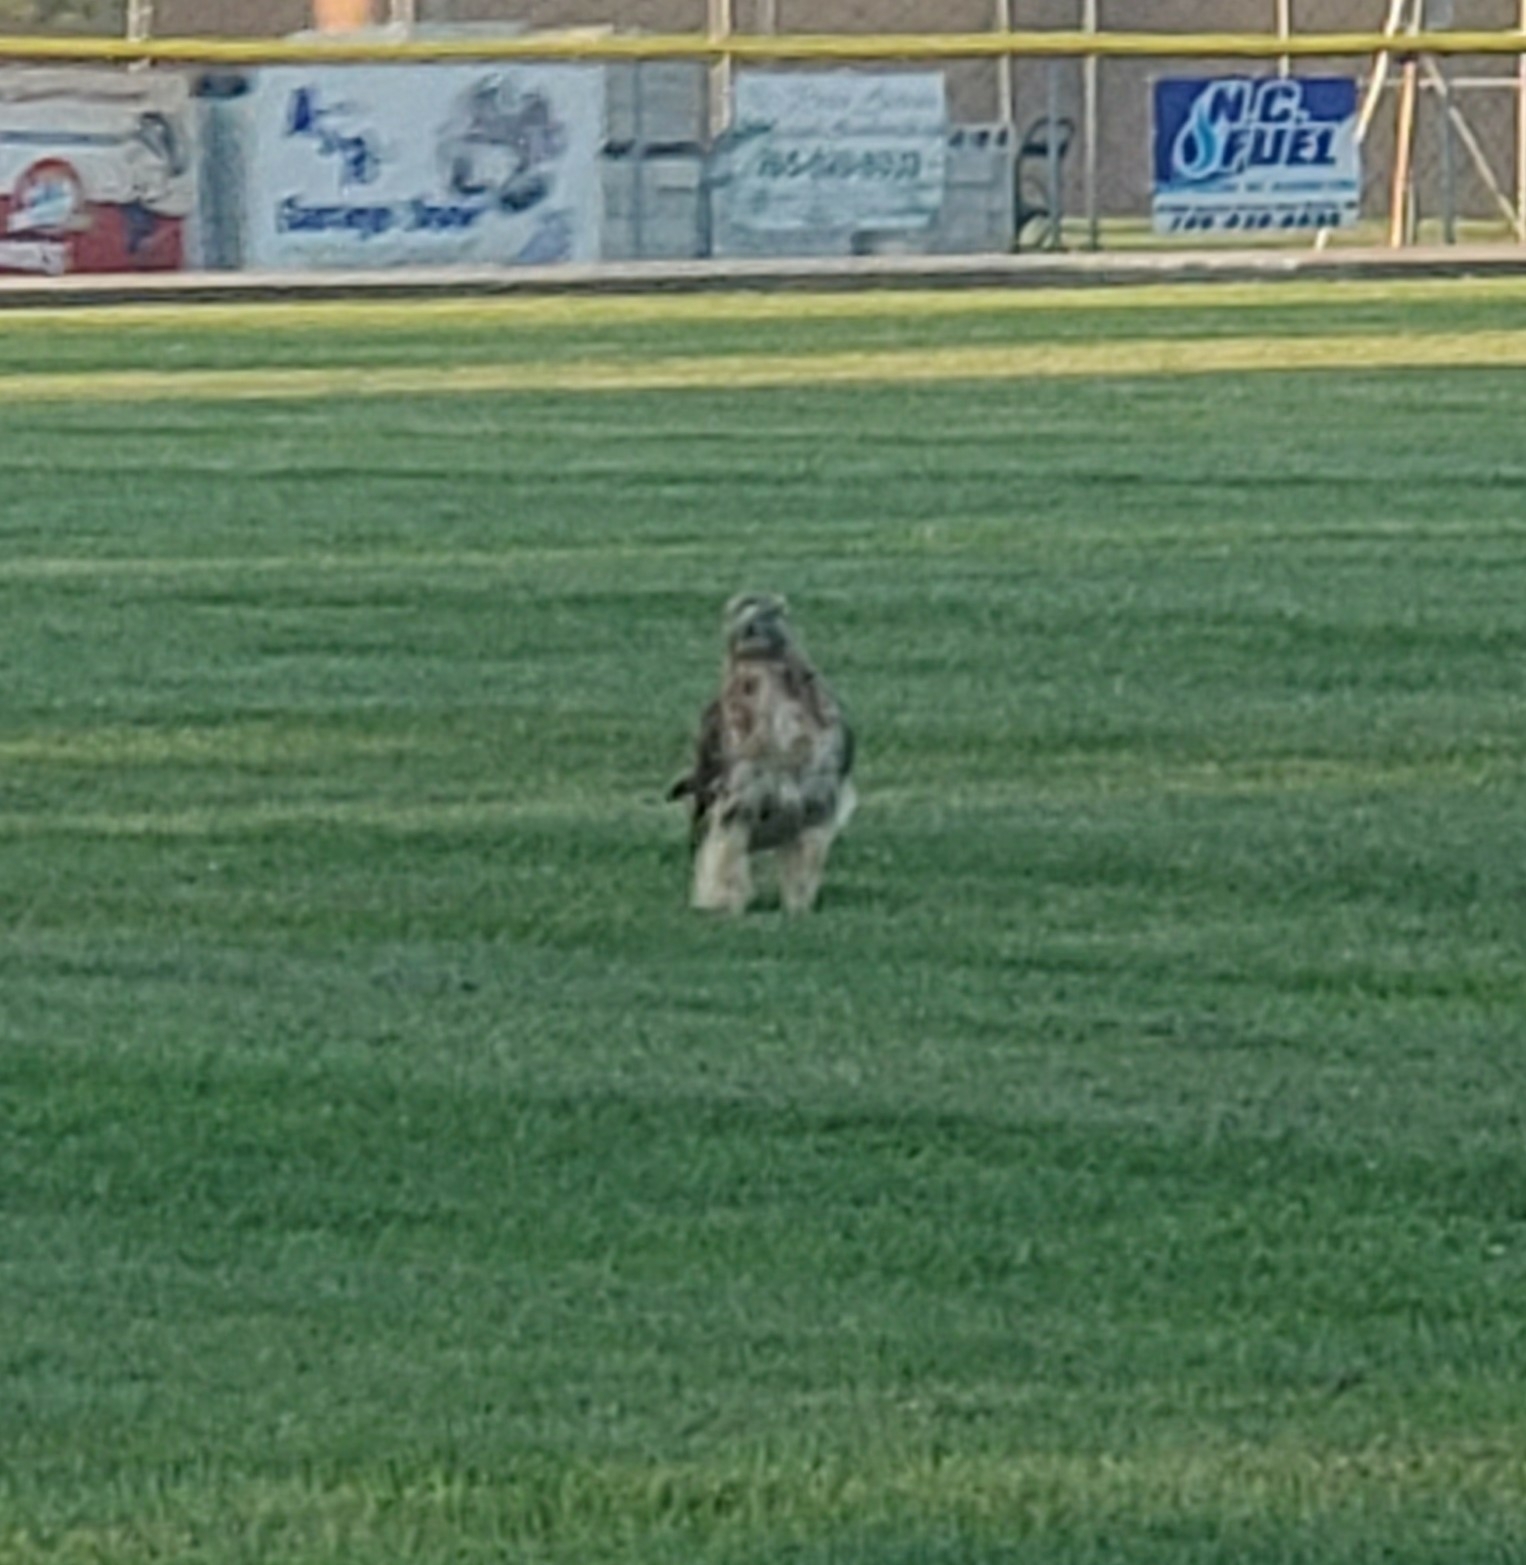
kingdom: Animalia
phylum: Chordata
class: Aves
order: Accipitriformes
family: Accipitridae
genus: Buteo
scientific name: Buteo jamaicensis
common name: Red-tailed hawk
